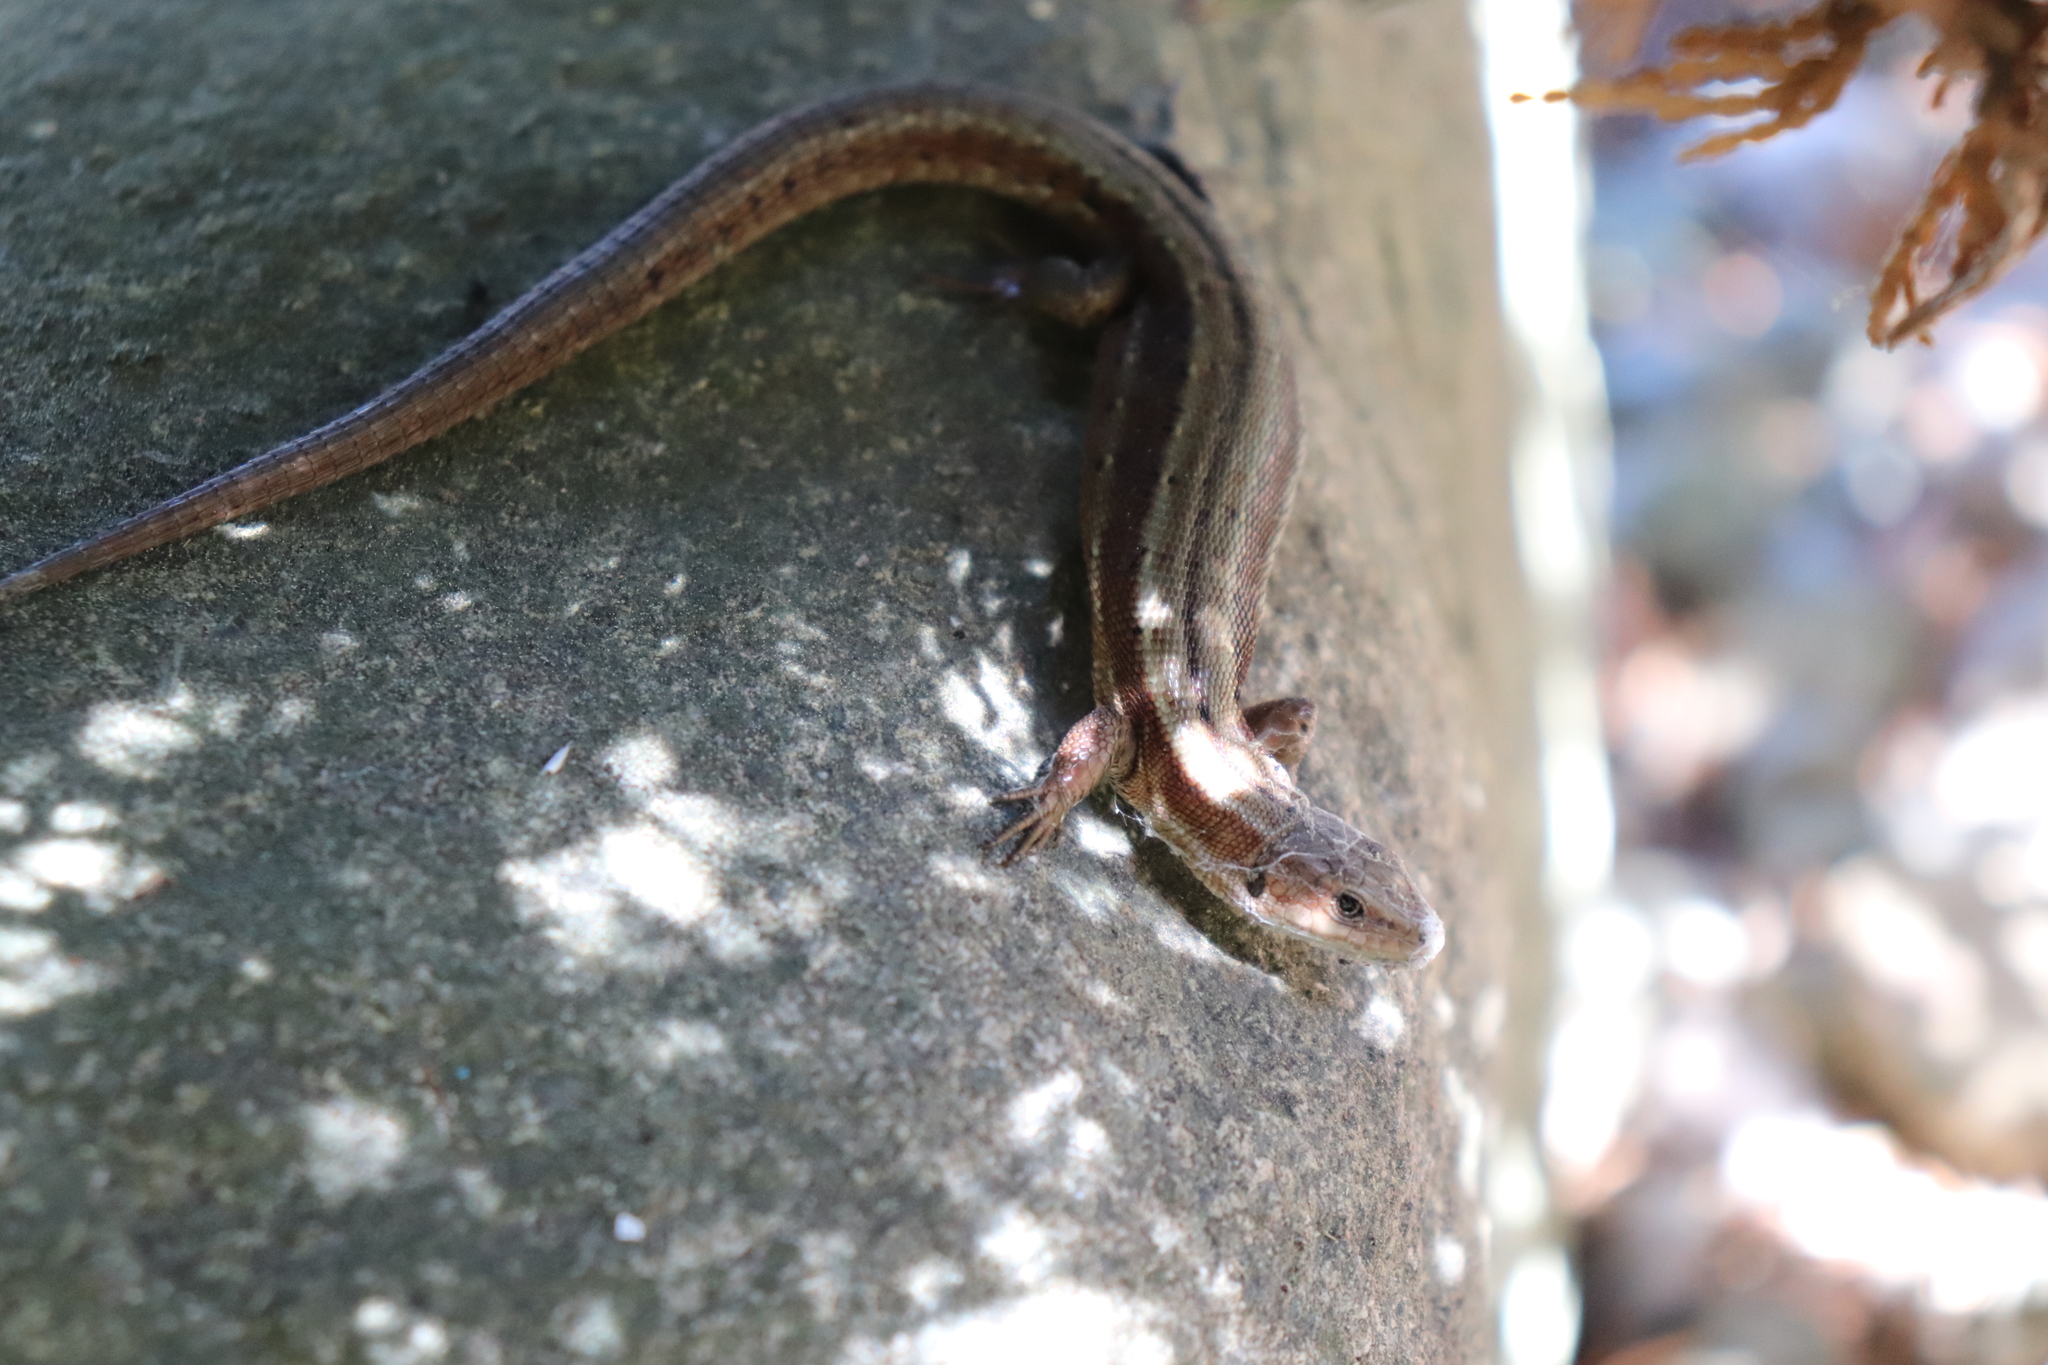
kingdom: Animalia
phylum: Chordata
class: Squamata
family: Lacertidae
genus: Zootoca
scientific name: Zootoca vivipara
